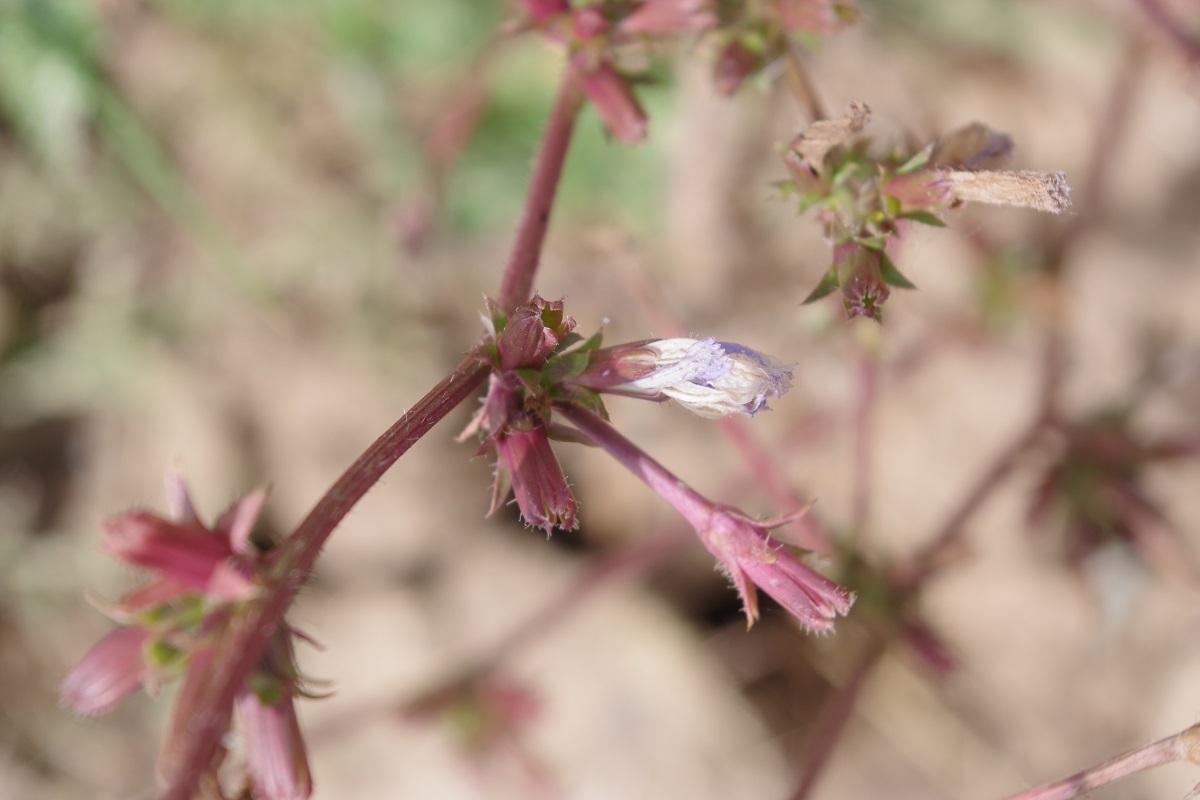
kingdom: Plantae
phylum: Tracheophyta
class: Magnoliopsida
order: Asterales
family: Asteraceae
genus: Cichorium
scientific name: Cichorium intybus
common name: Chicory
